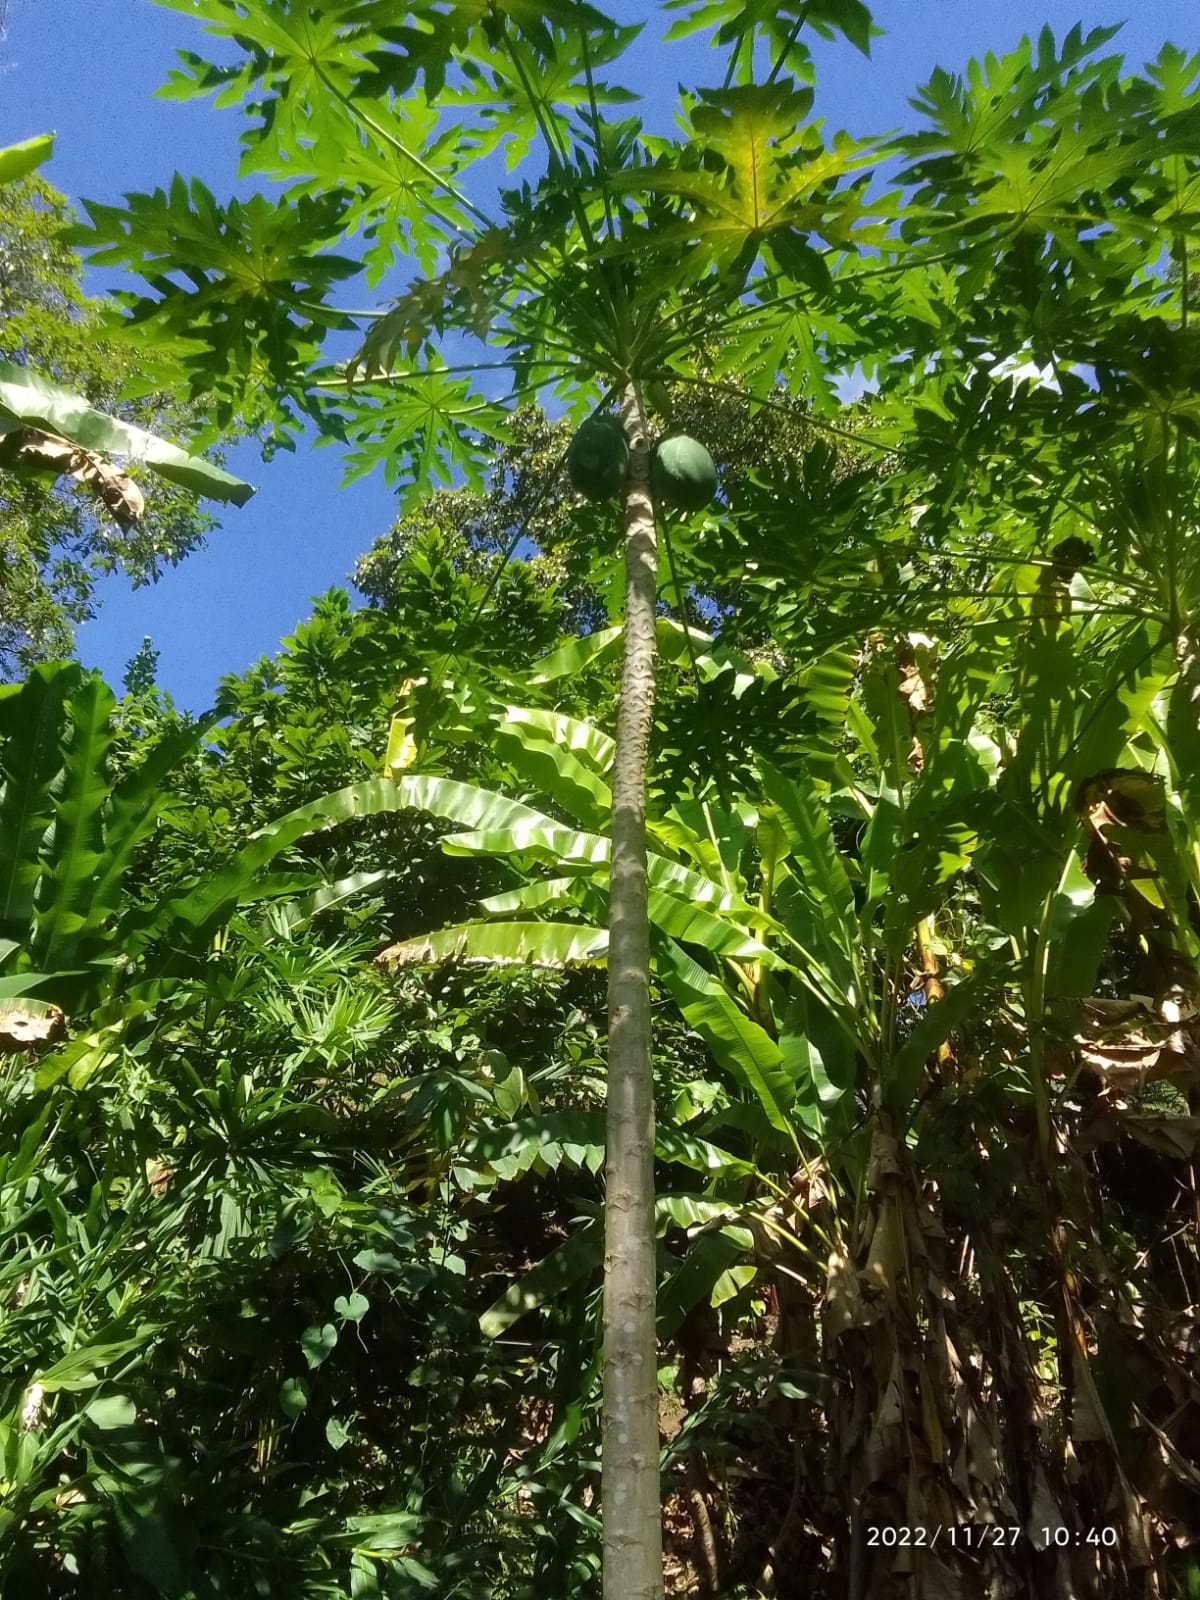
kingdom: Plantae
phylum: Tracheophyta
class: Magnoliopsida
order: Brassicales
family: Caricaceae
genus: Carica
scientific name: Carica papaya
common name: Papaya
